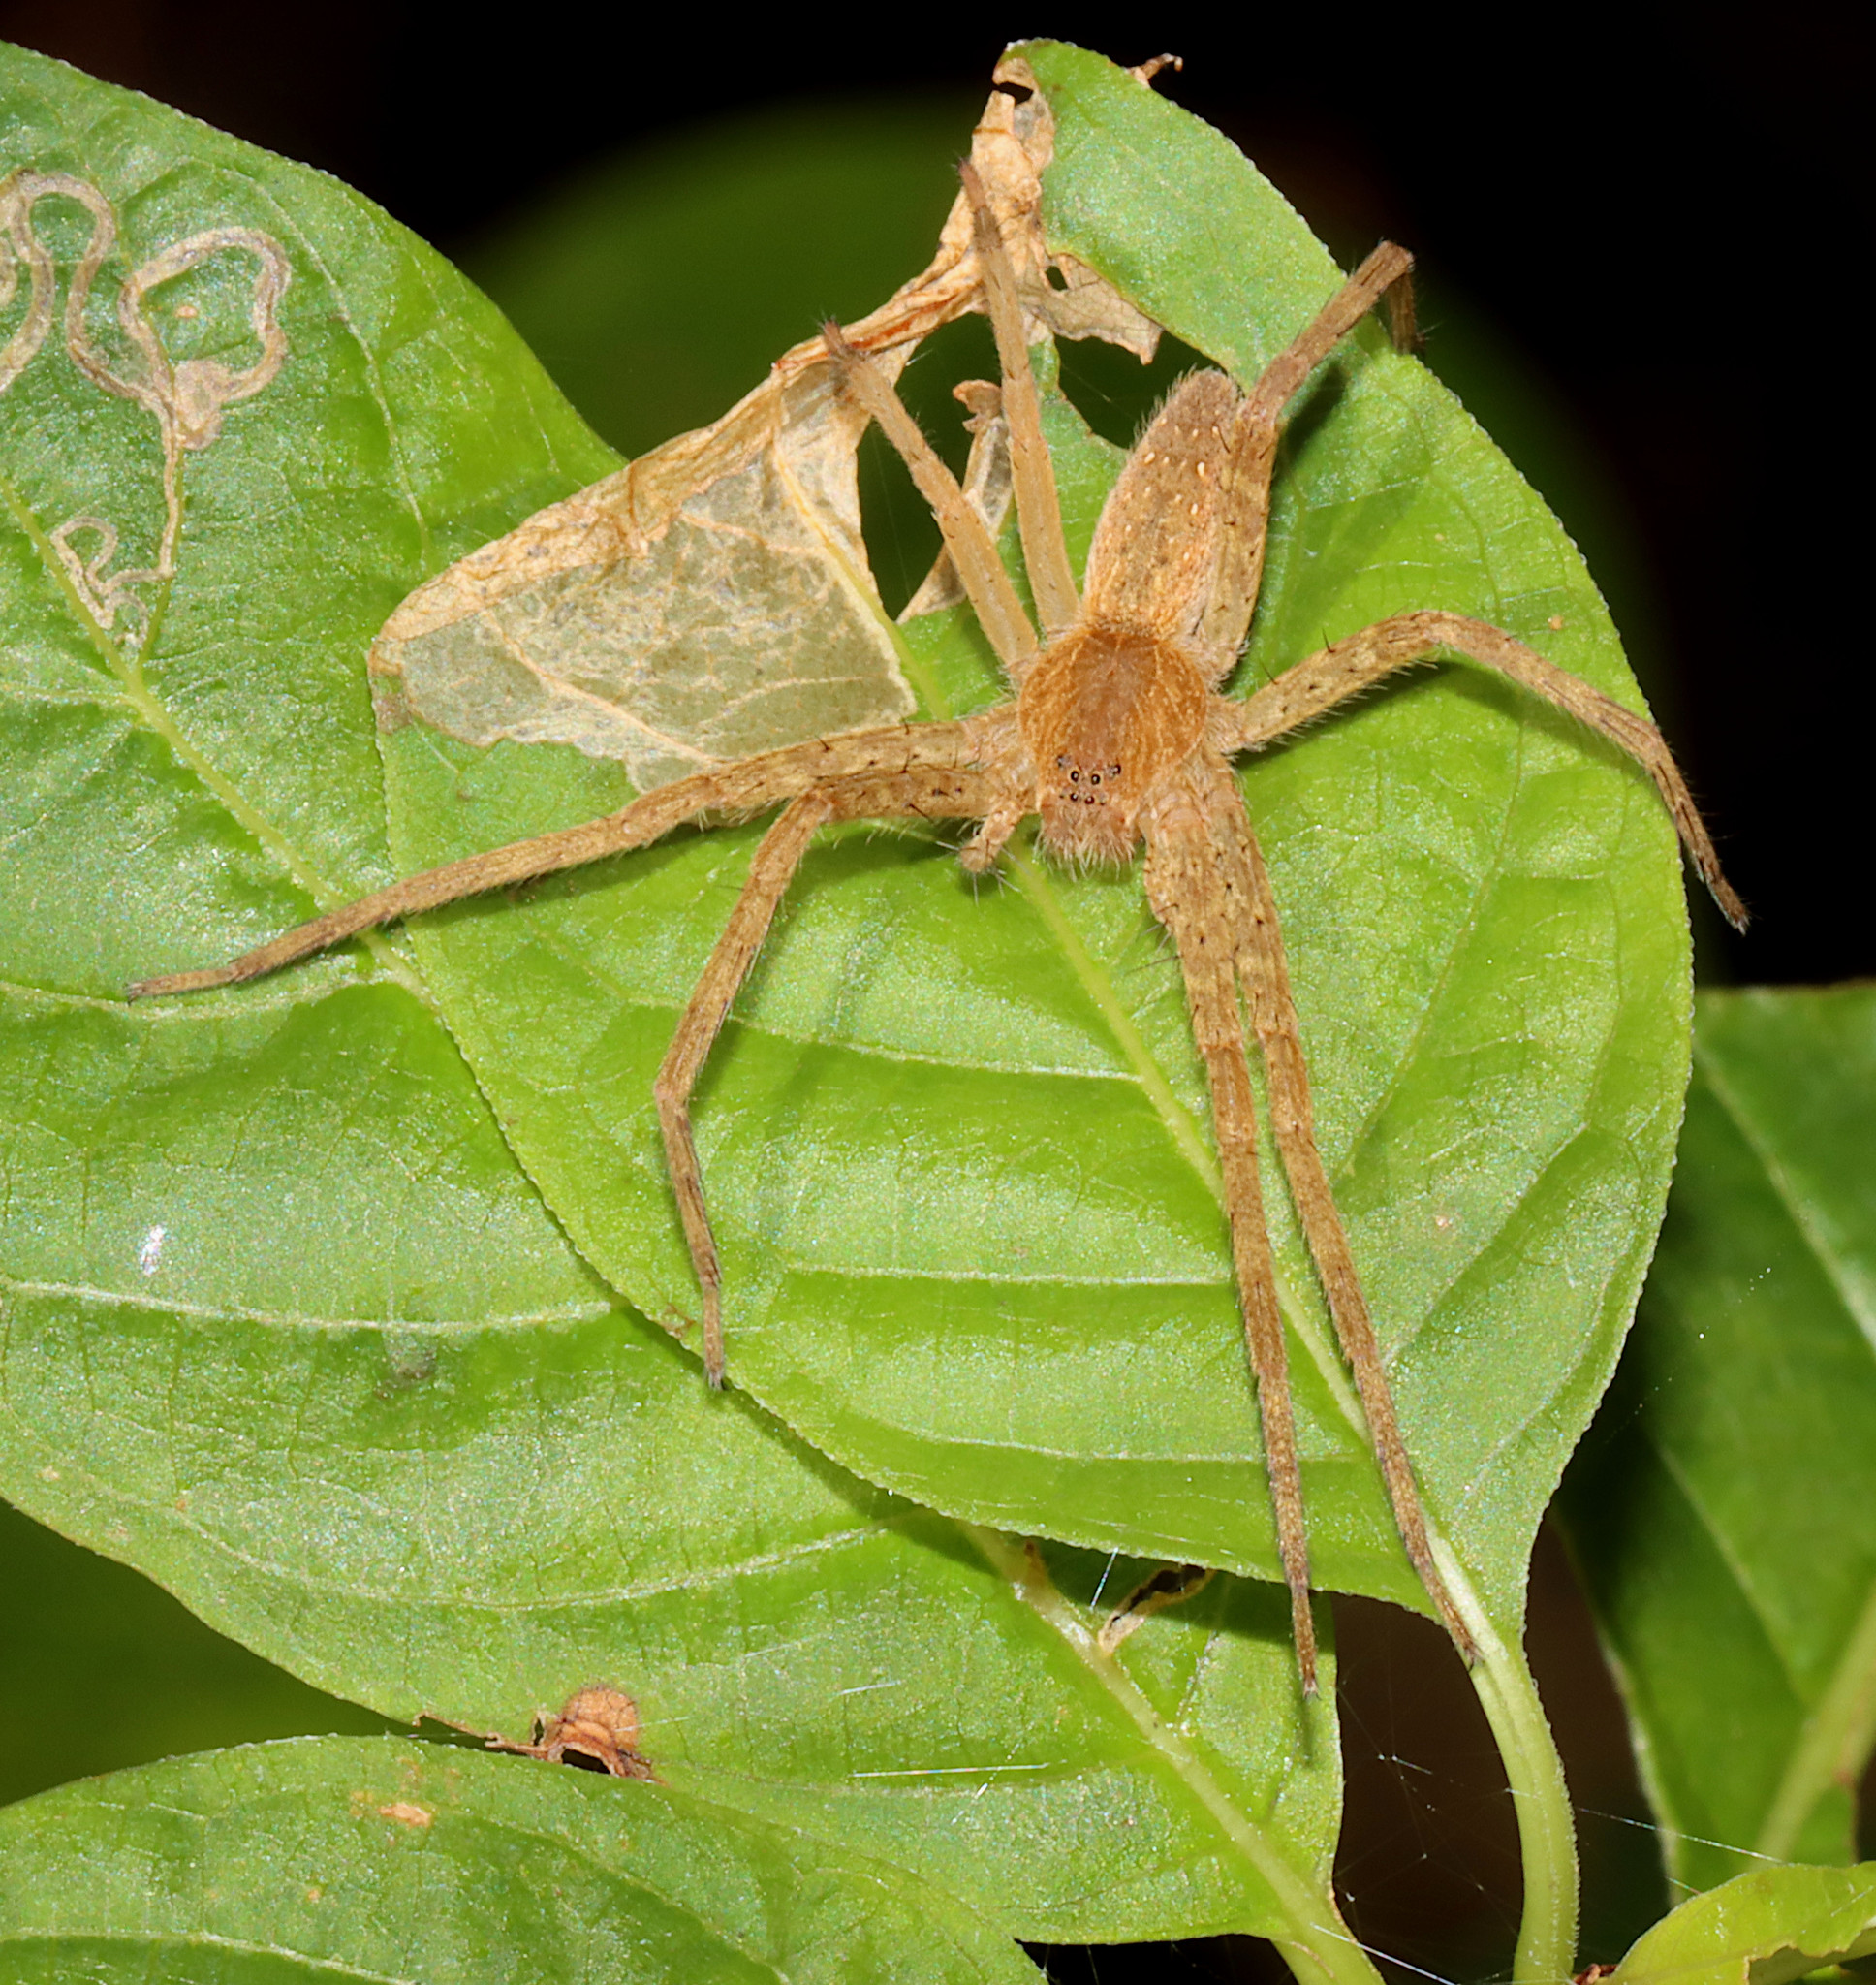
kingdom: Animalia
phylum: Arthropoda
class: Arachnida
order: Araneae
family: Pisauridae
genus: Pisaurina
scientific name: Pisaurina mira
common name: American nursery web spider
